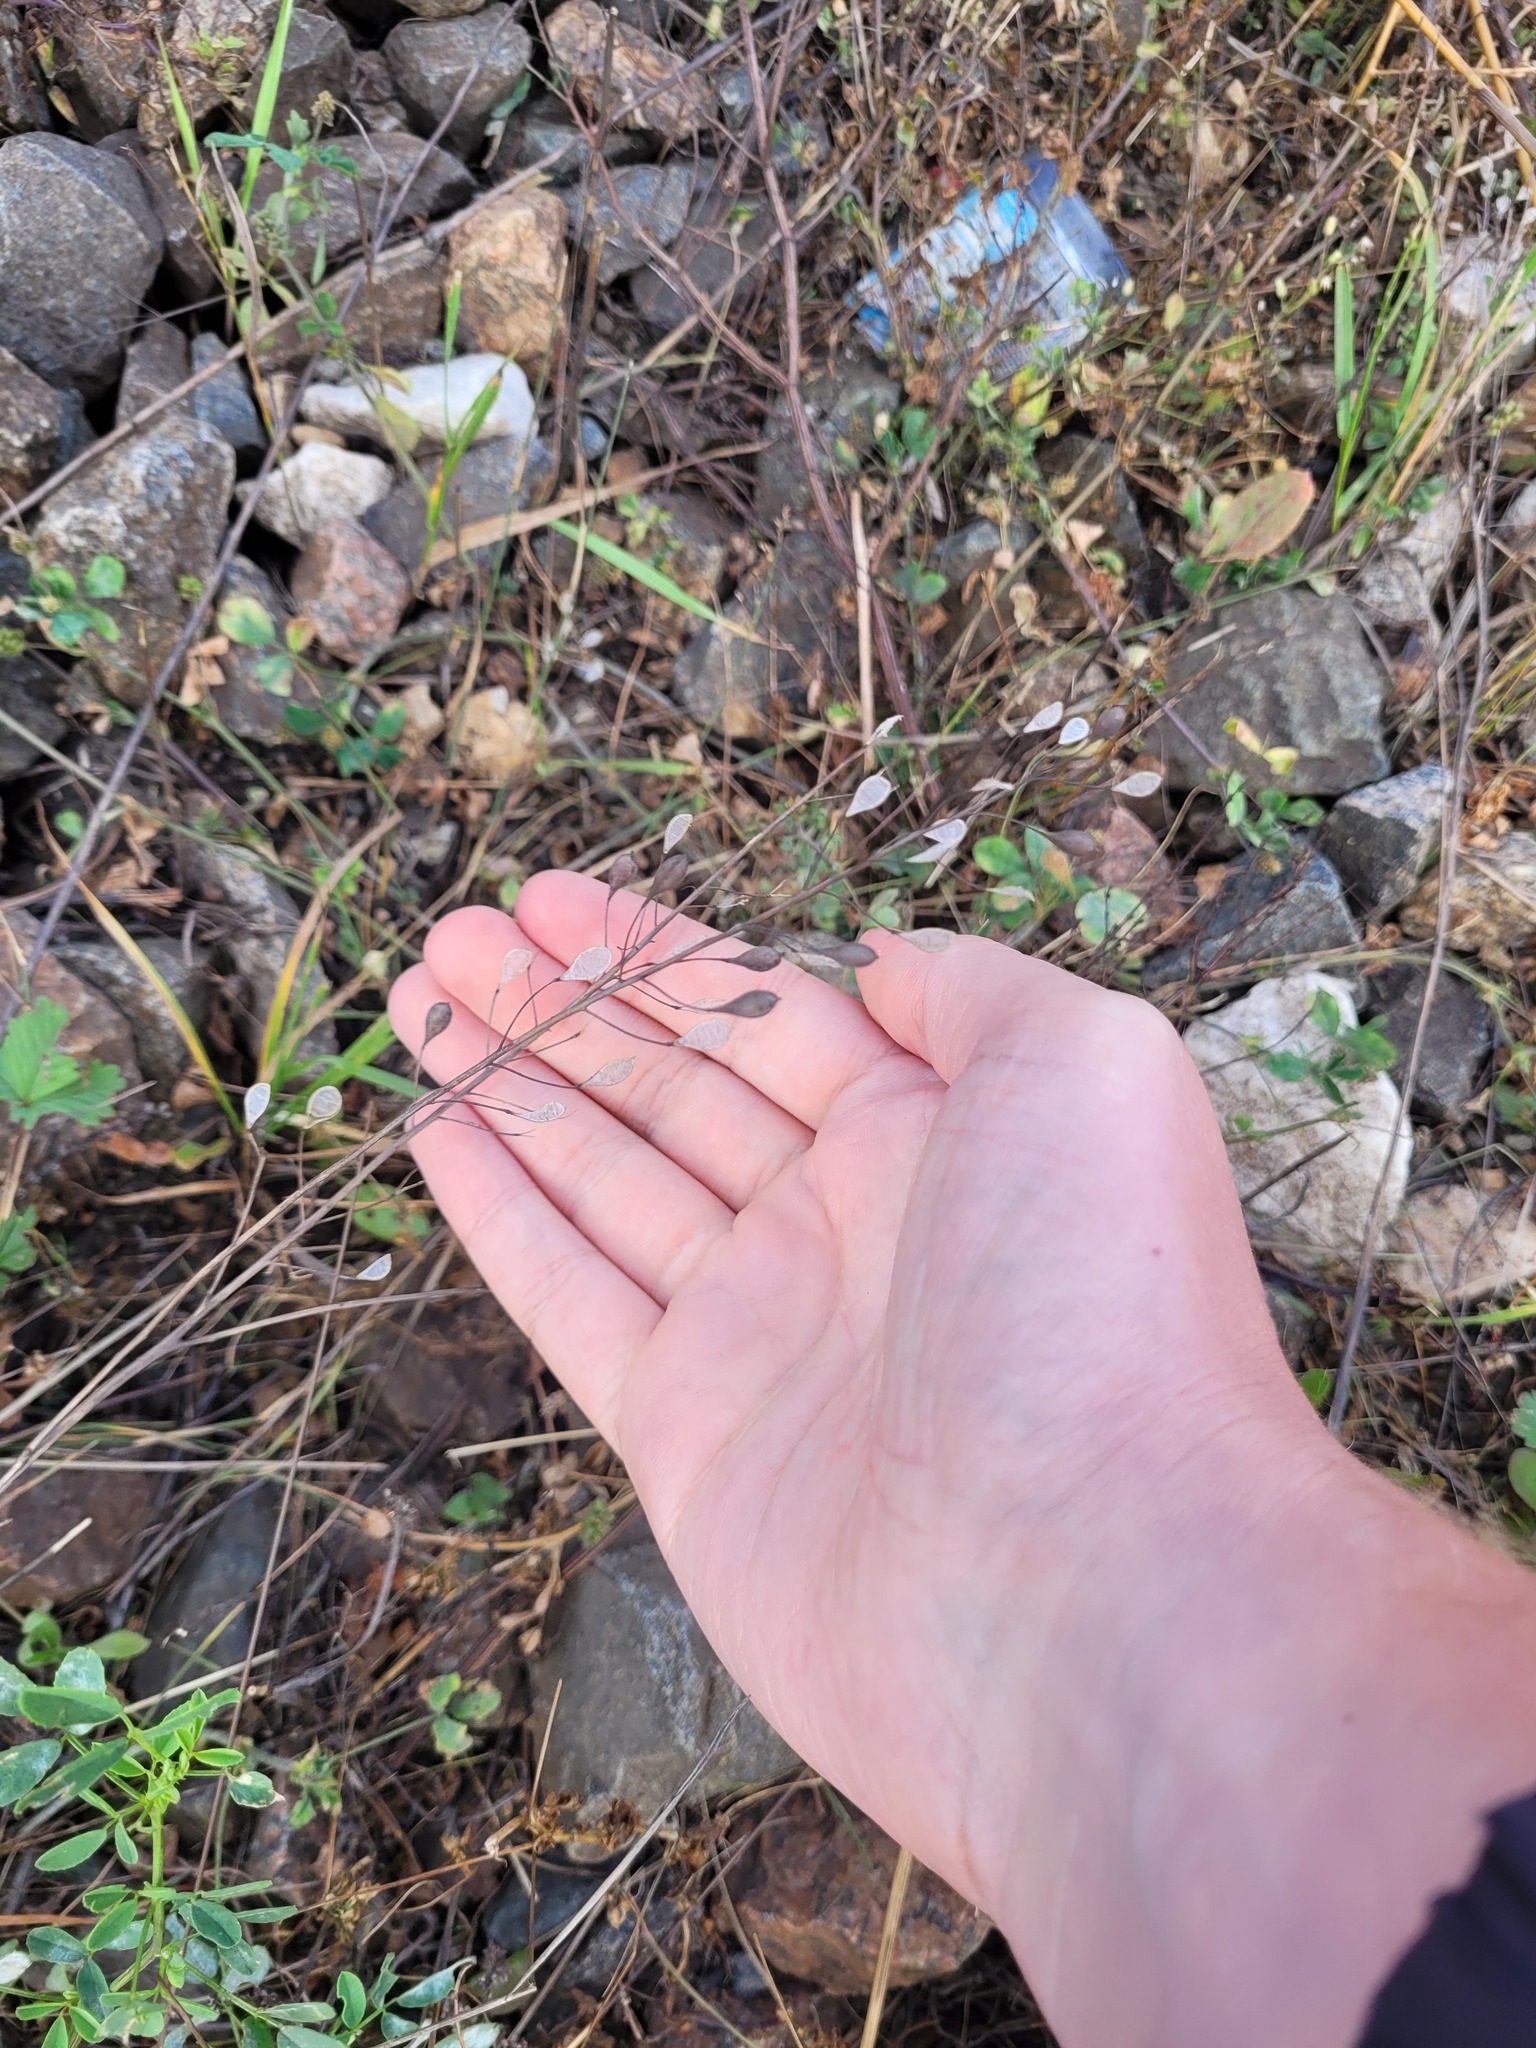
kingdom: Plantae
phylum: Tracheophyta
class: Magnoliopsida
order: Brassicales
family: Brassicaceae
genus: Camelina
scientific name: Camelina sativa
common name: Gold-of-pleasure
